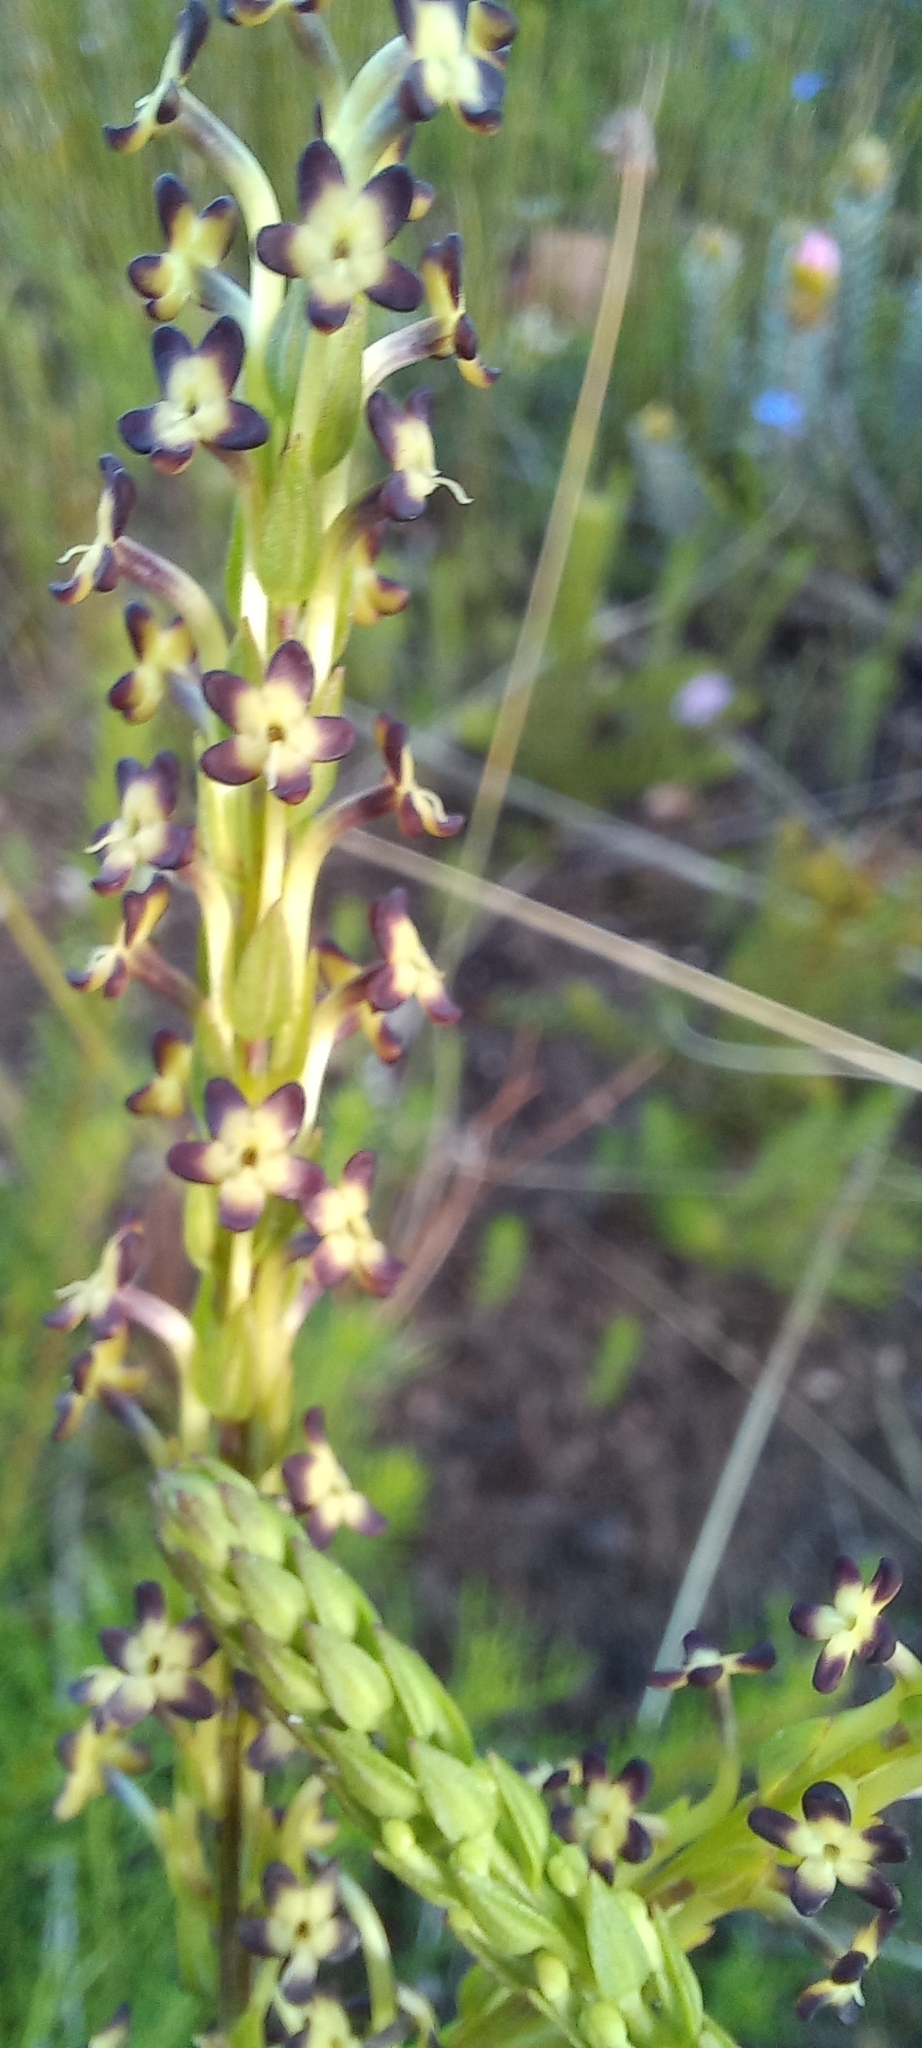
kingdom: Plantae
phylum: Tracheophyta
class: Magnoliopsida
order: Lamiales
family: Scrophulariaceae
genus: Microdon
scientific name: Microdon dubius
